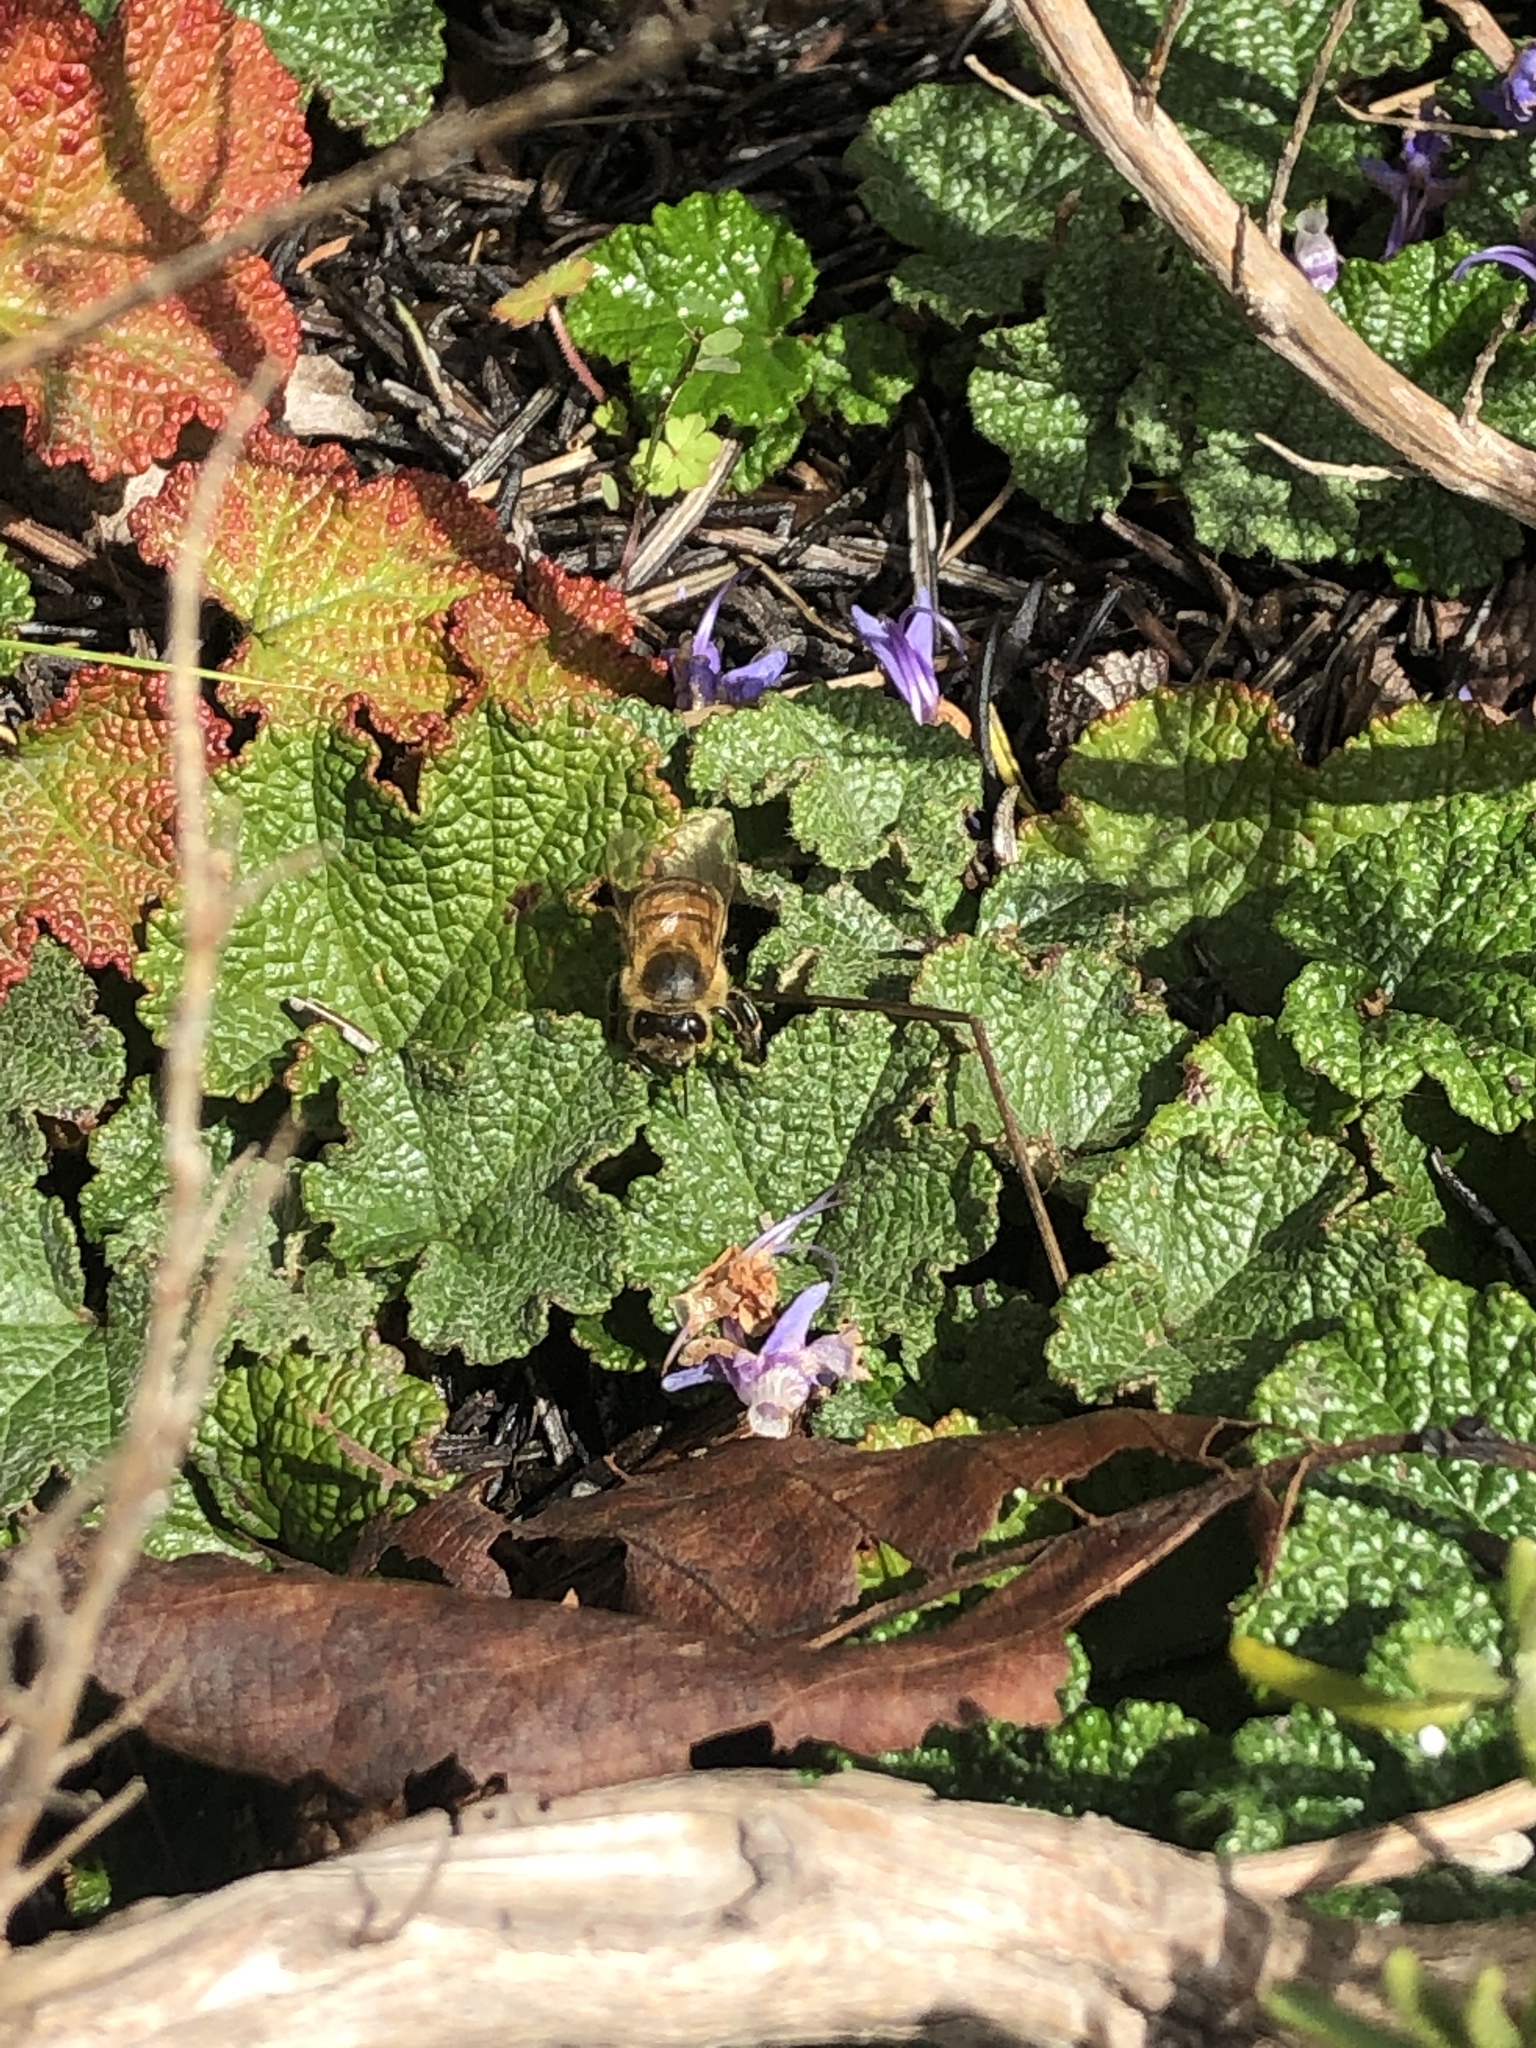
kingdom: Animalia
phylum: Arthropoda
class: Insecta
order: Hymenoptera
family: Apidae
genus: Apis
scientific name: Apis mellifera
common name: Honey bee
